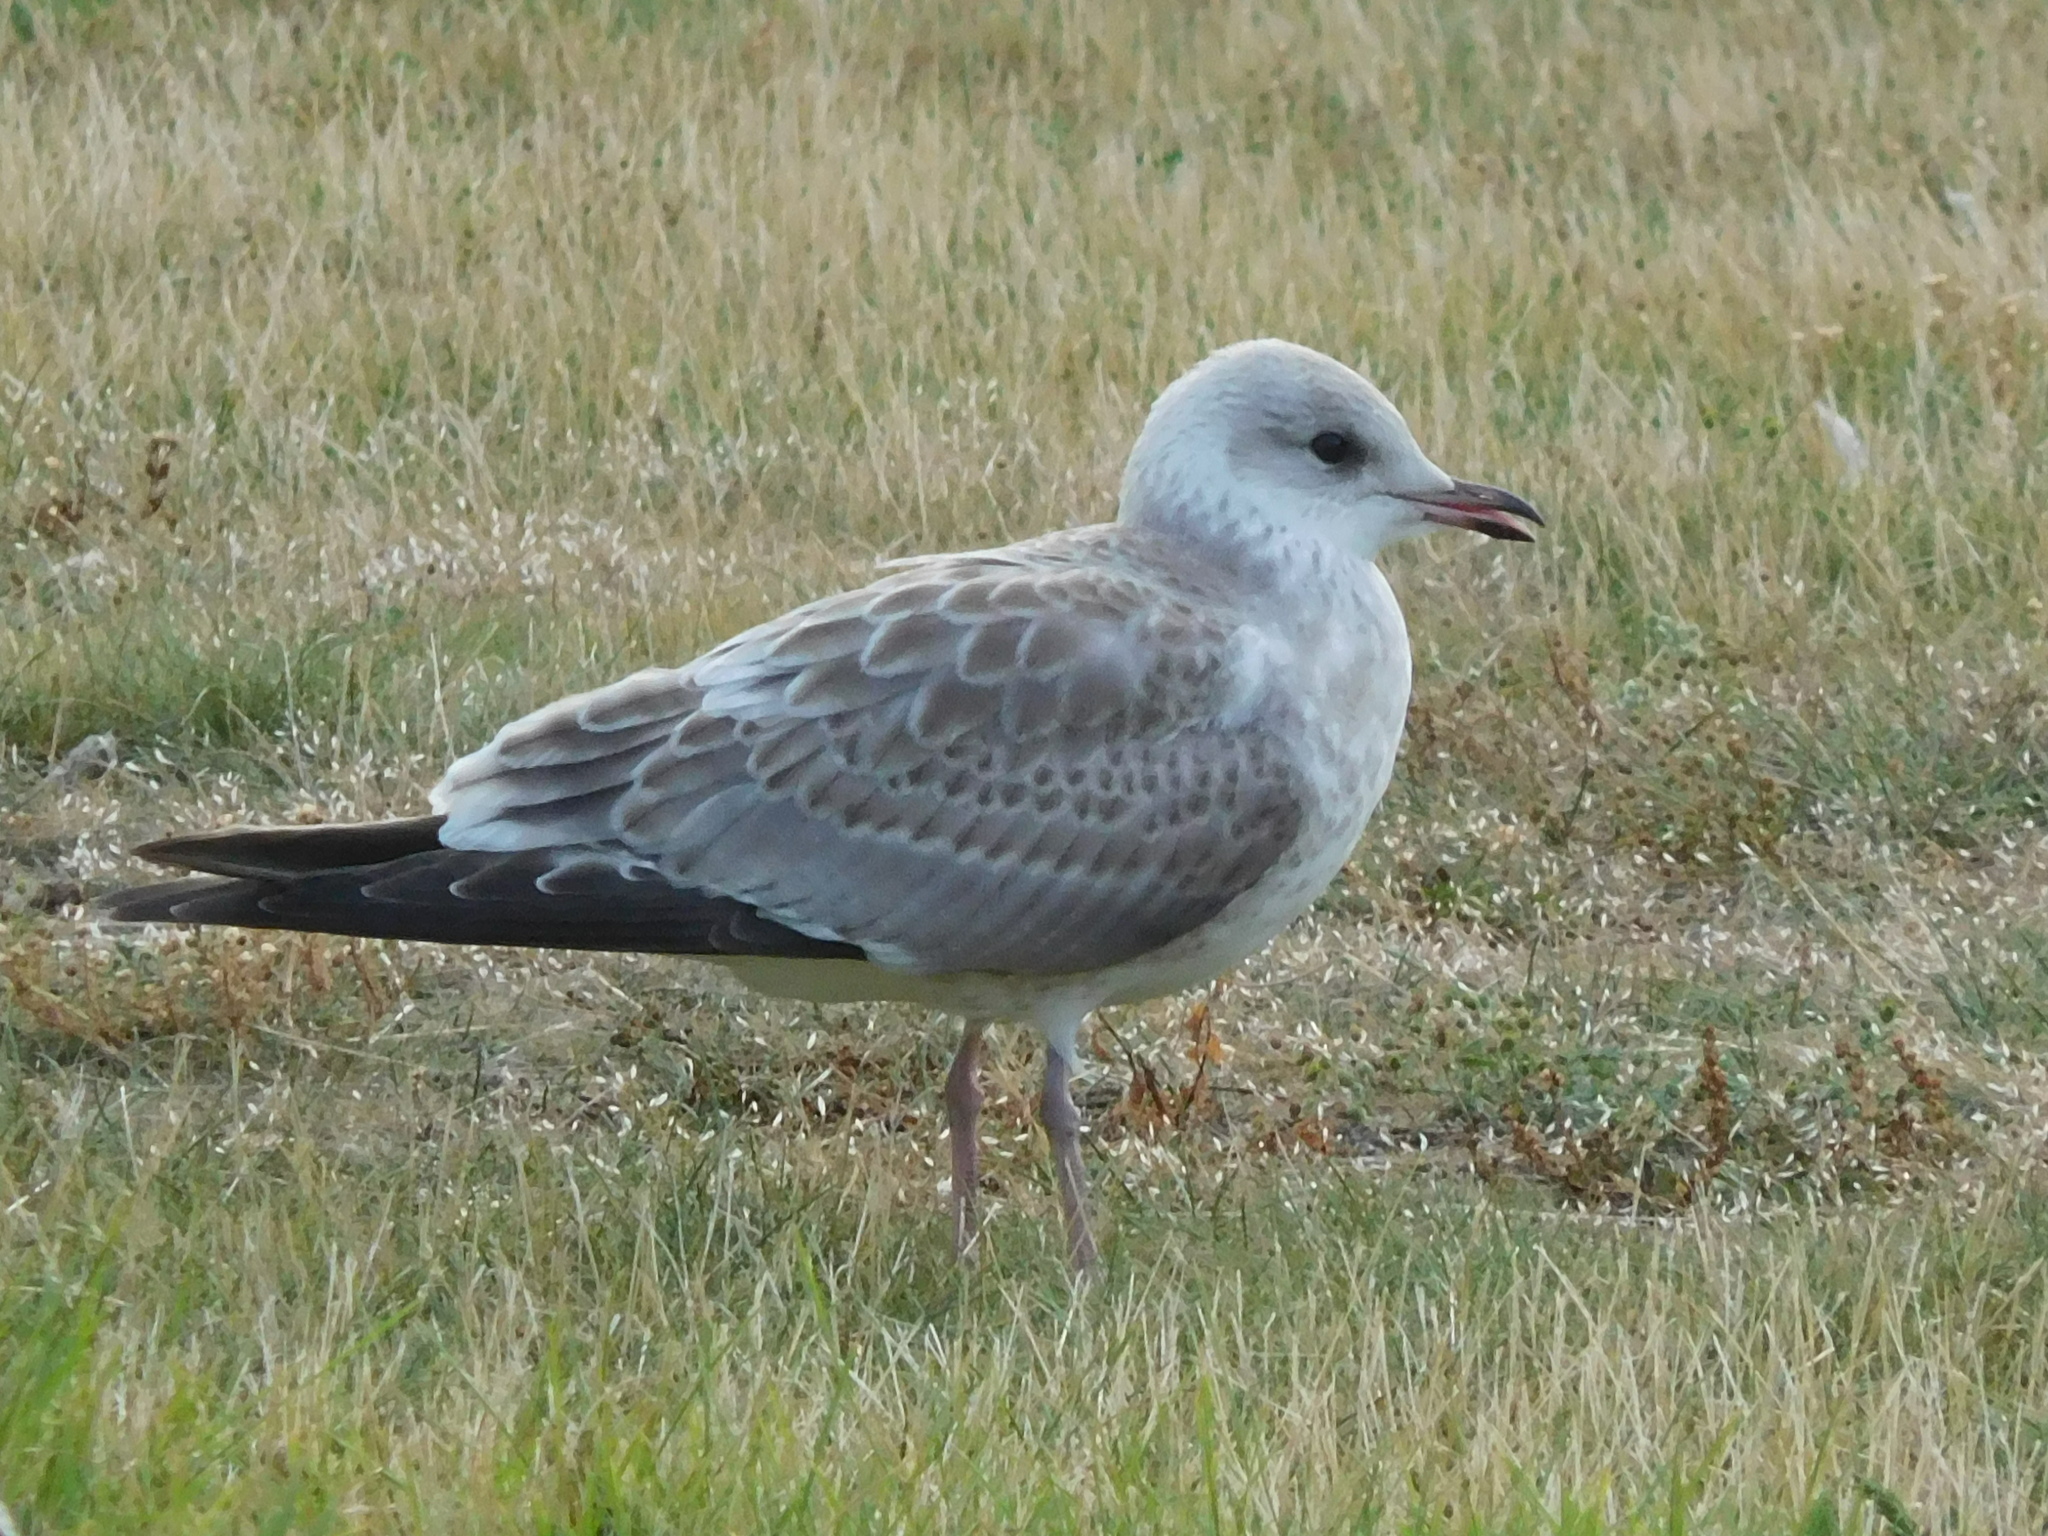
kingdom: Animalia
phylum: Chordata
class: Aves
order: Charadriiformes
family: Laridae
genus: Larus
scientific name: Larus canus
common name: Mew gull
